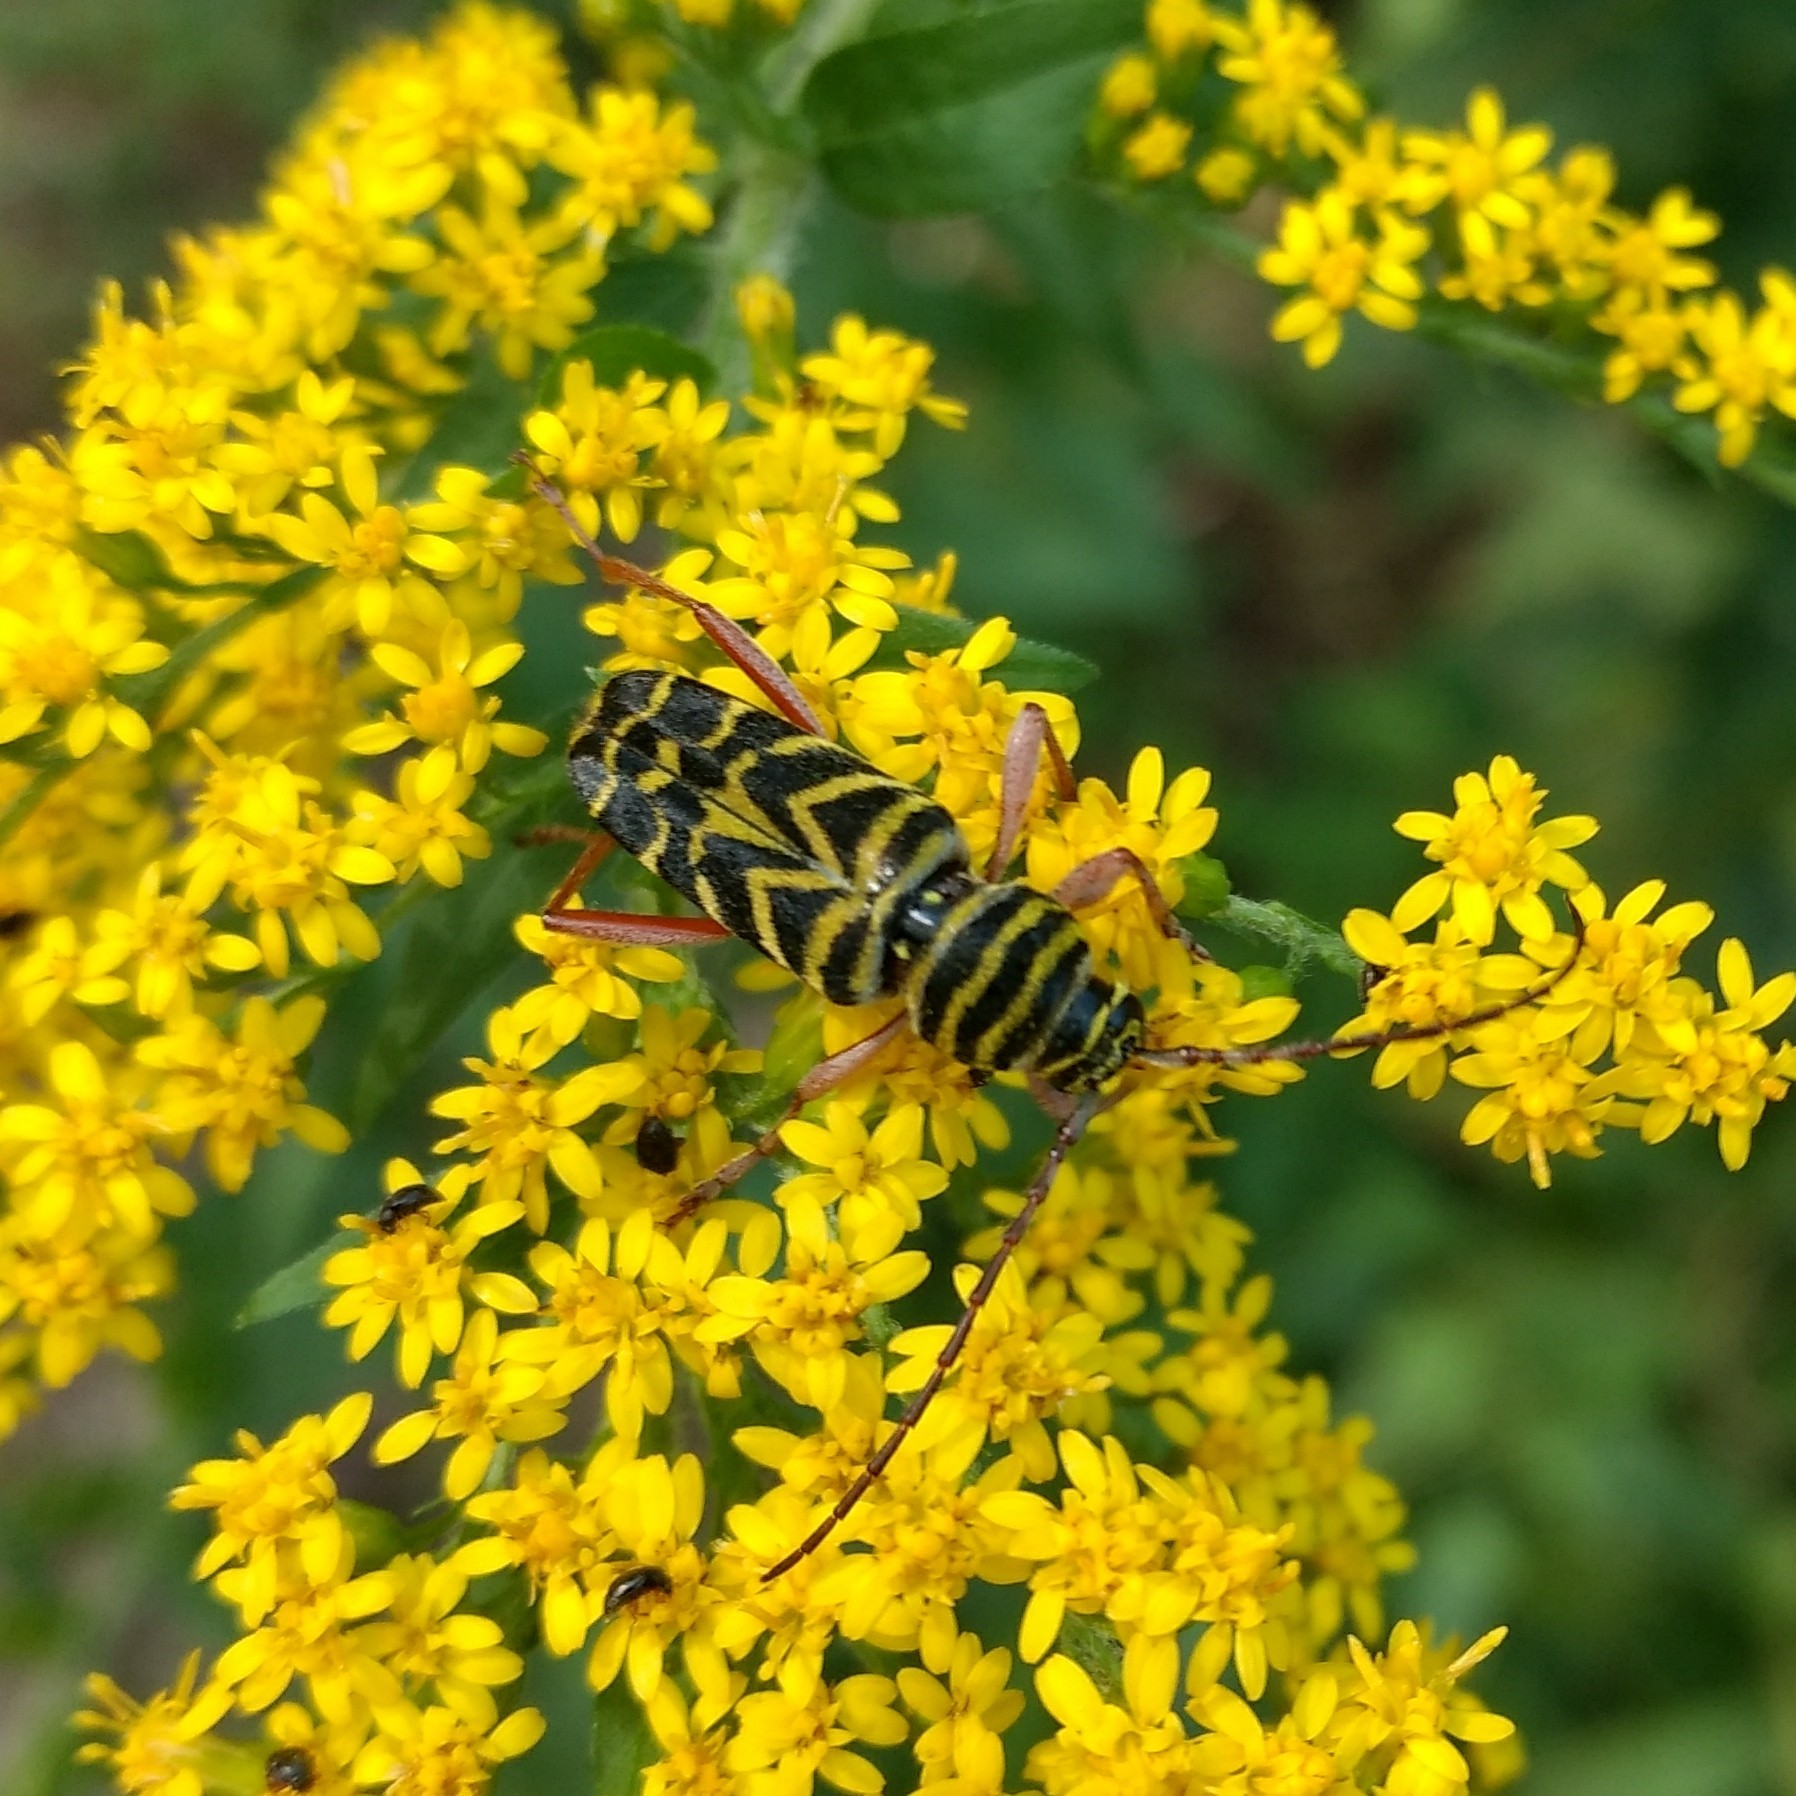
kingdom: Animalia
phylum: Arthropoda
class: Insecta
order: Coleoptera
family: Cerambycidae
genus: Megacyllene
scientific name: Megacyllene robiniae
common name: Locust borer
